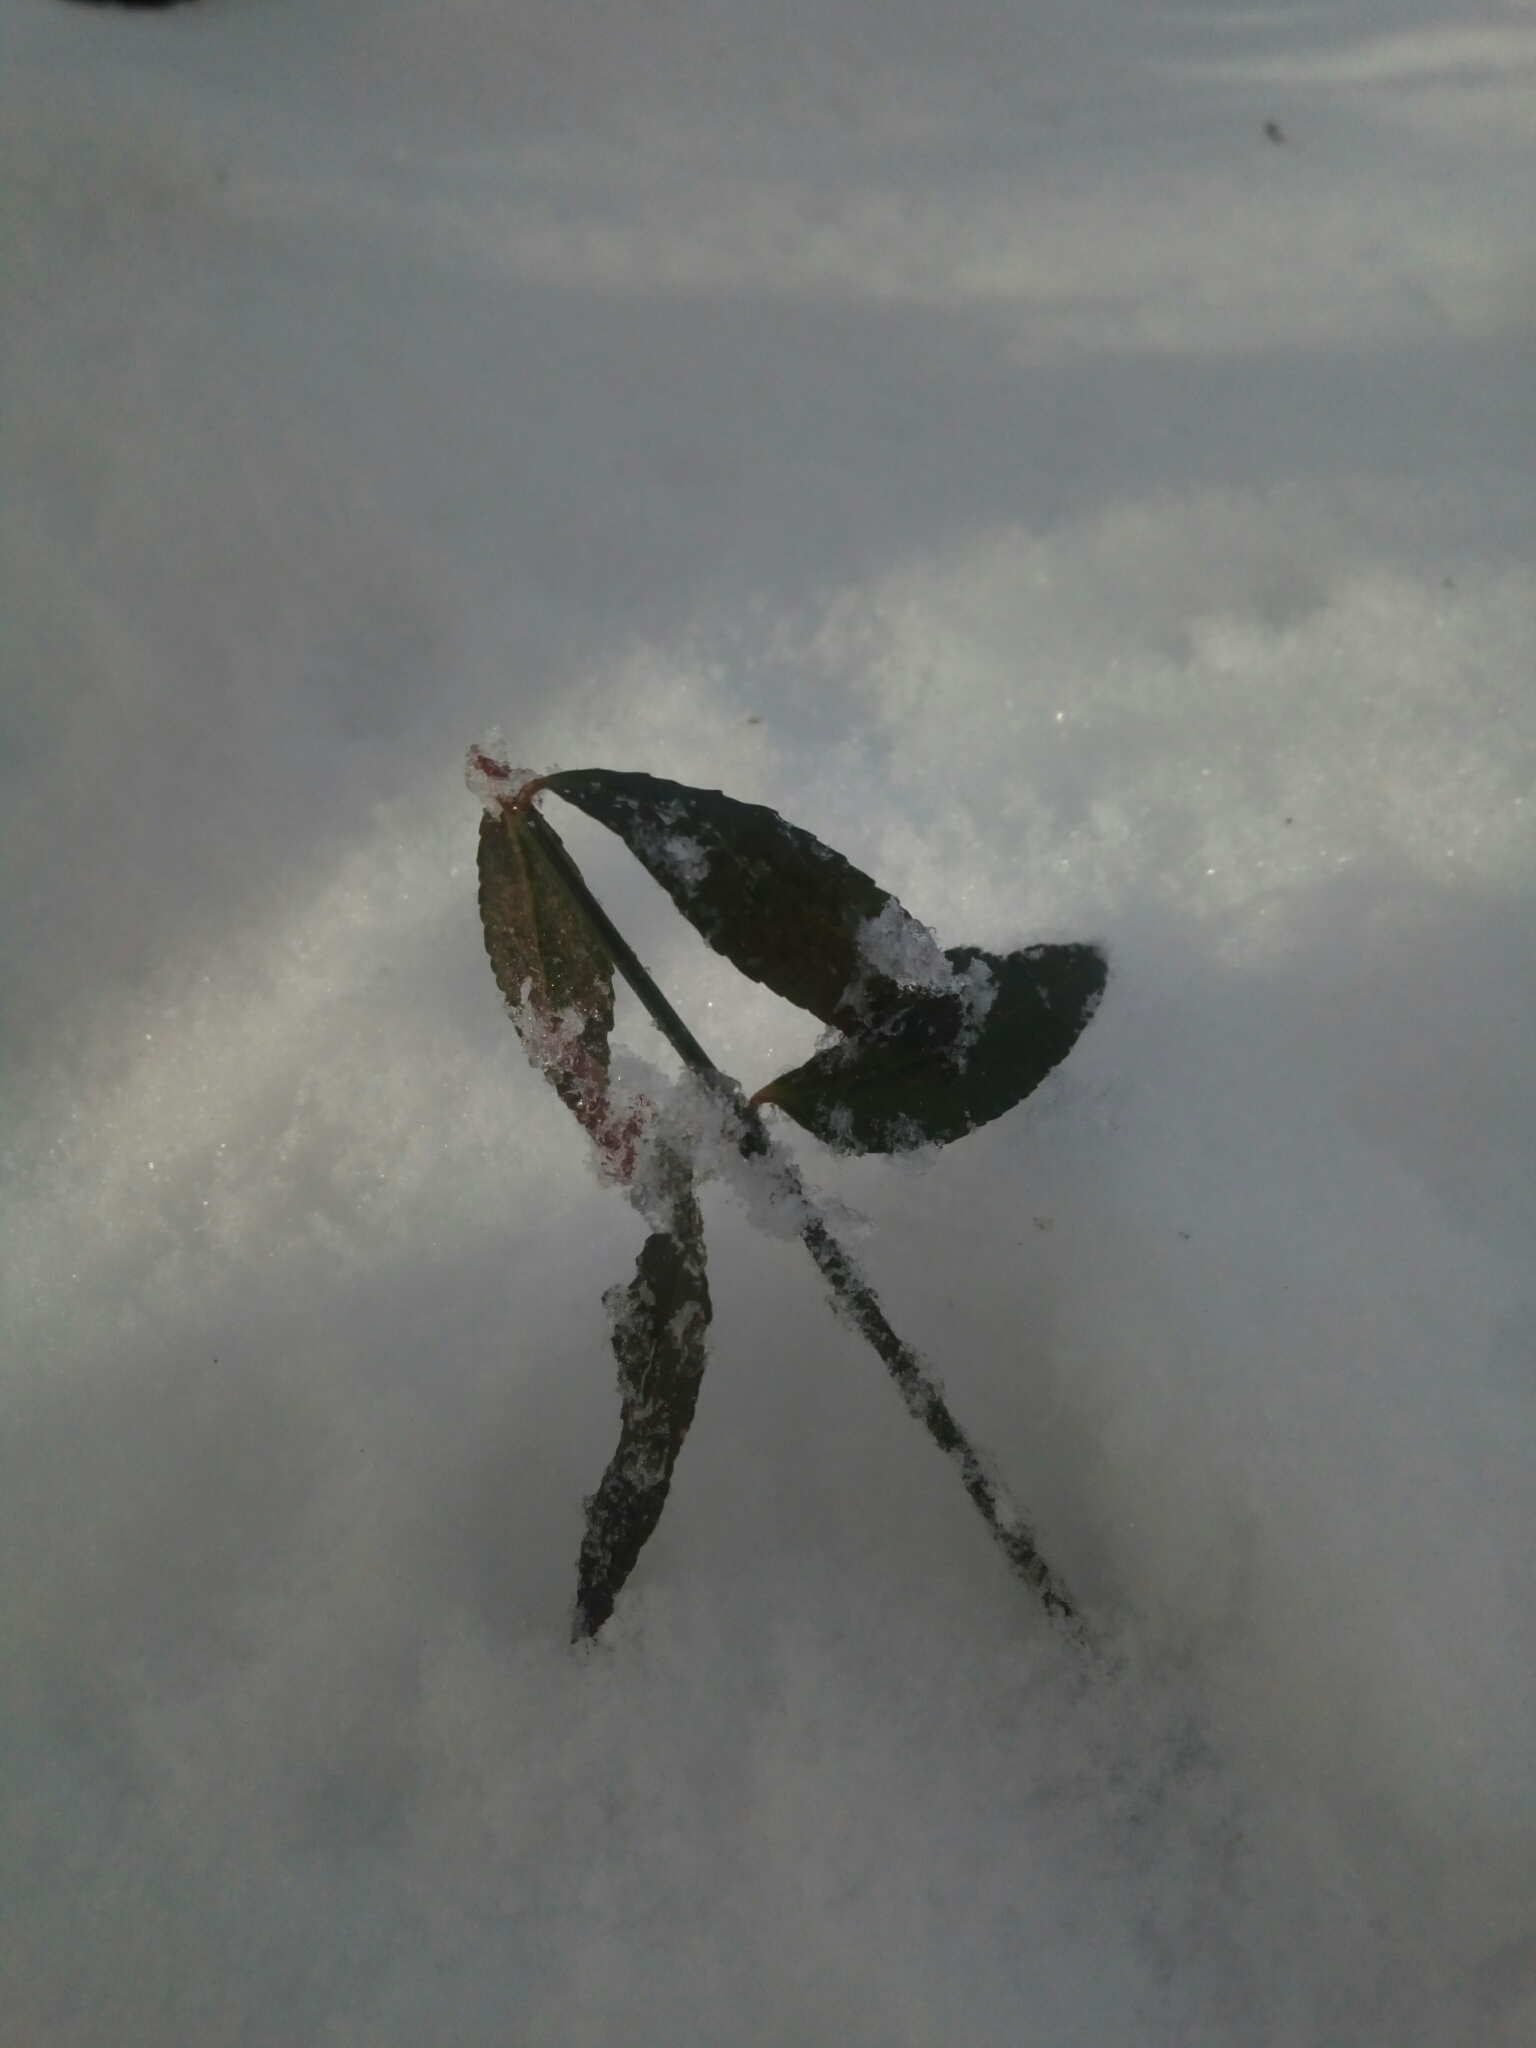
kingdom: Plantae
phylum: Tracheophyta
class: Magnoliopsida
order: Celastrales
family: Celastraceae
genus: Euonymus
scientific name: Euonymus americanus
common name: Bursting-heart
